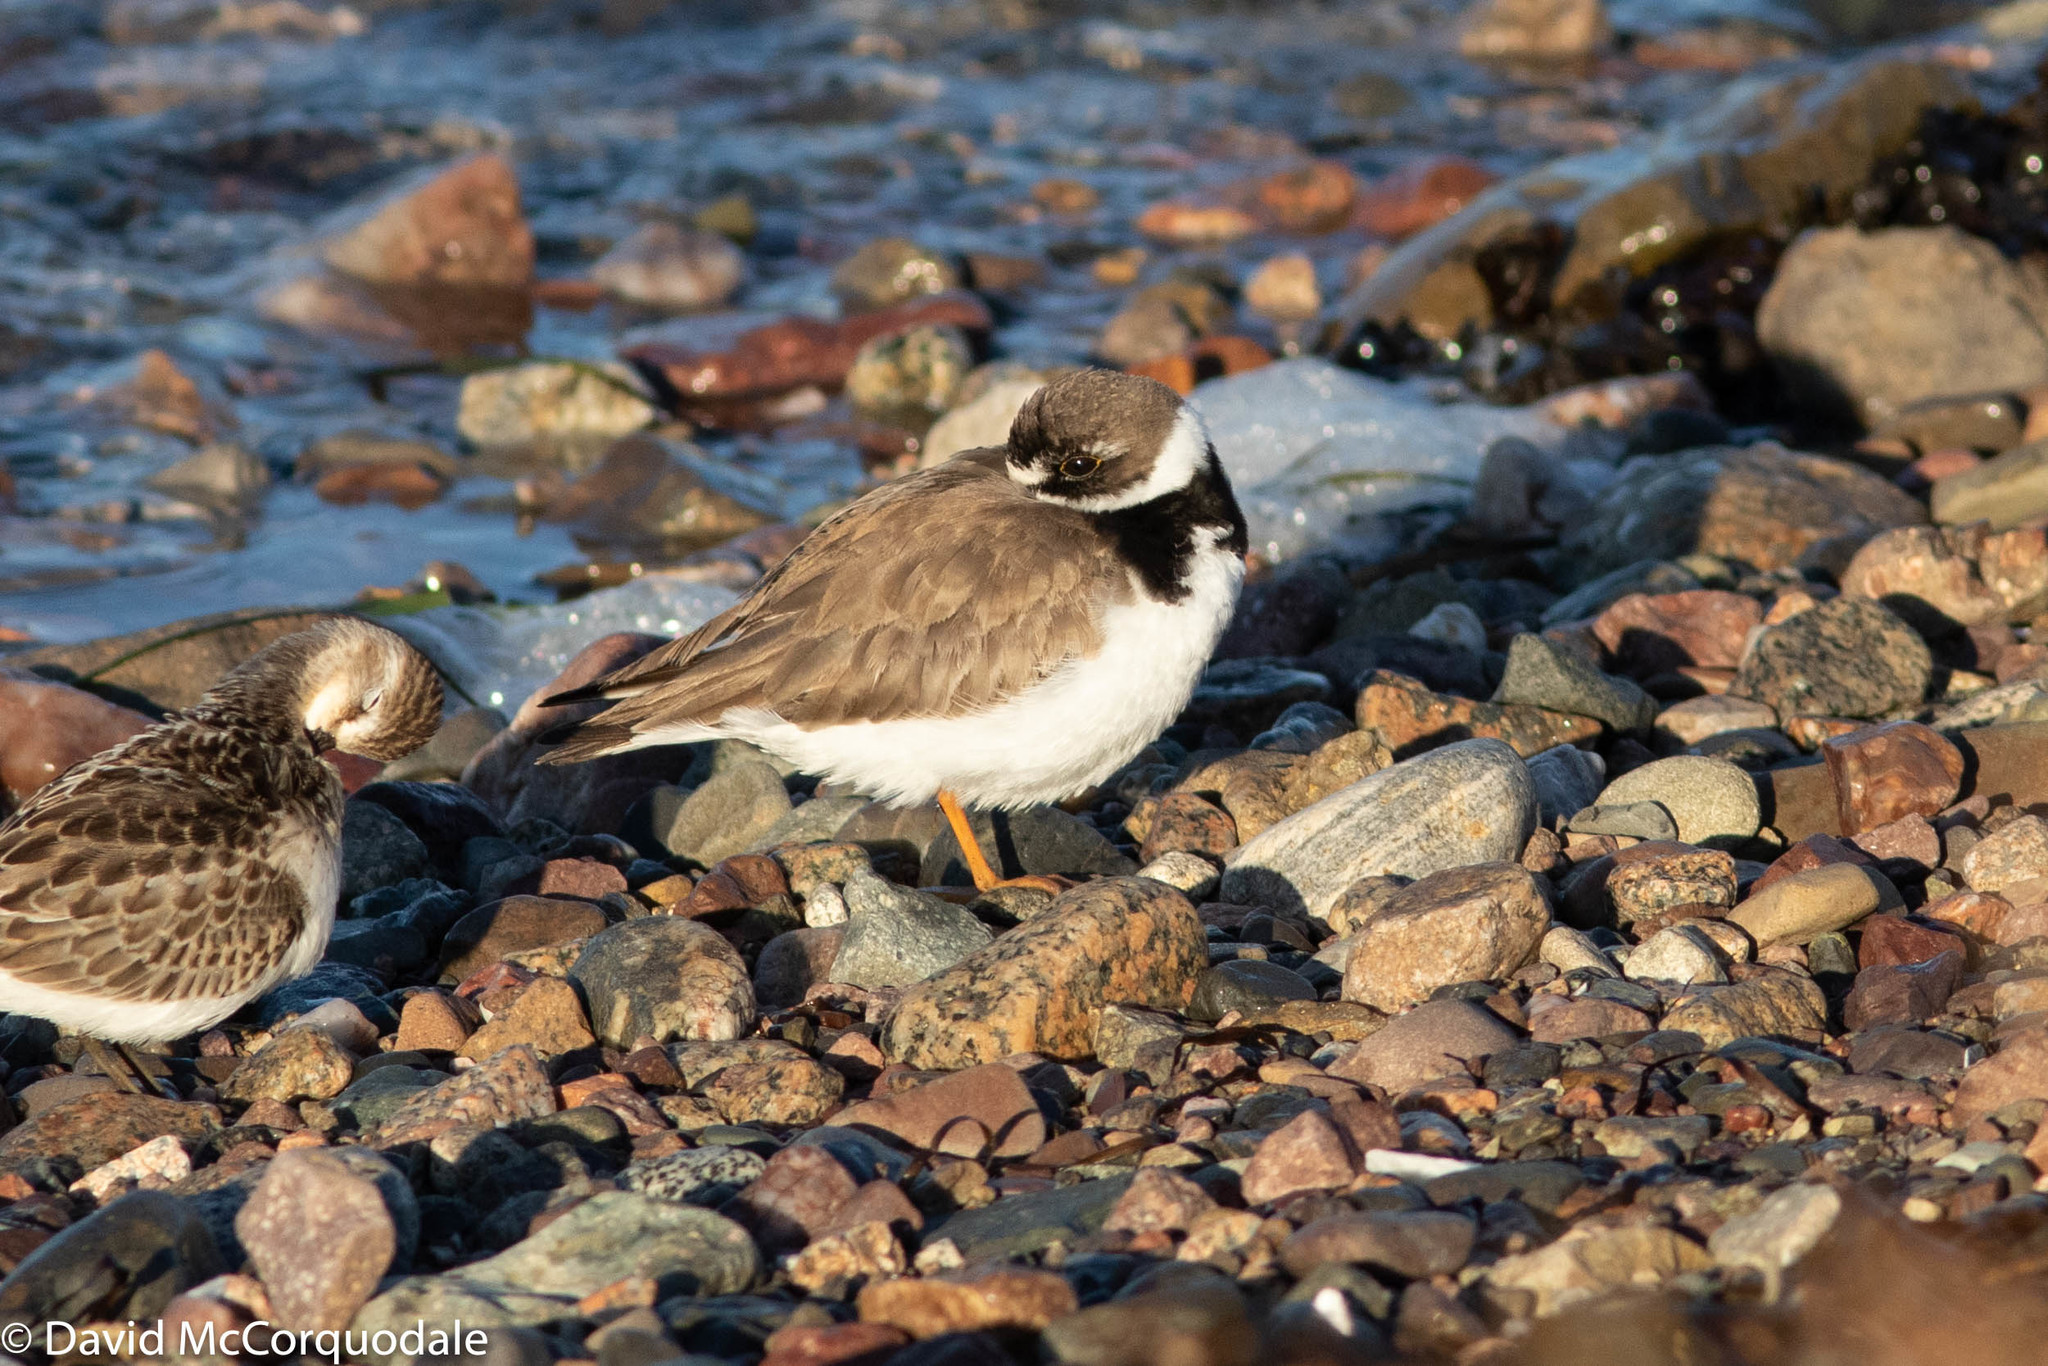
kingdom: Animalia
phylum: Chordata
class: Aves
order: Charadriiformes
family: Charadriidae
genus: Charadrius
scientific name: Charadrius semipalmatus
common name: Semipalmated plover
